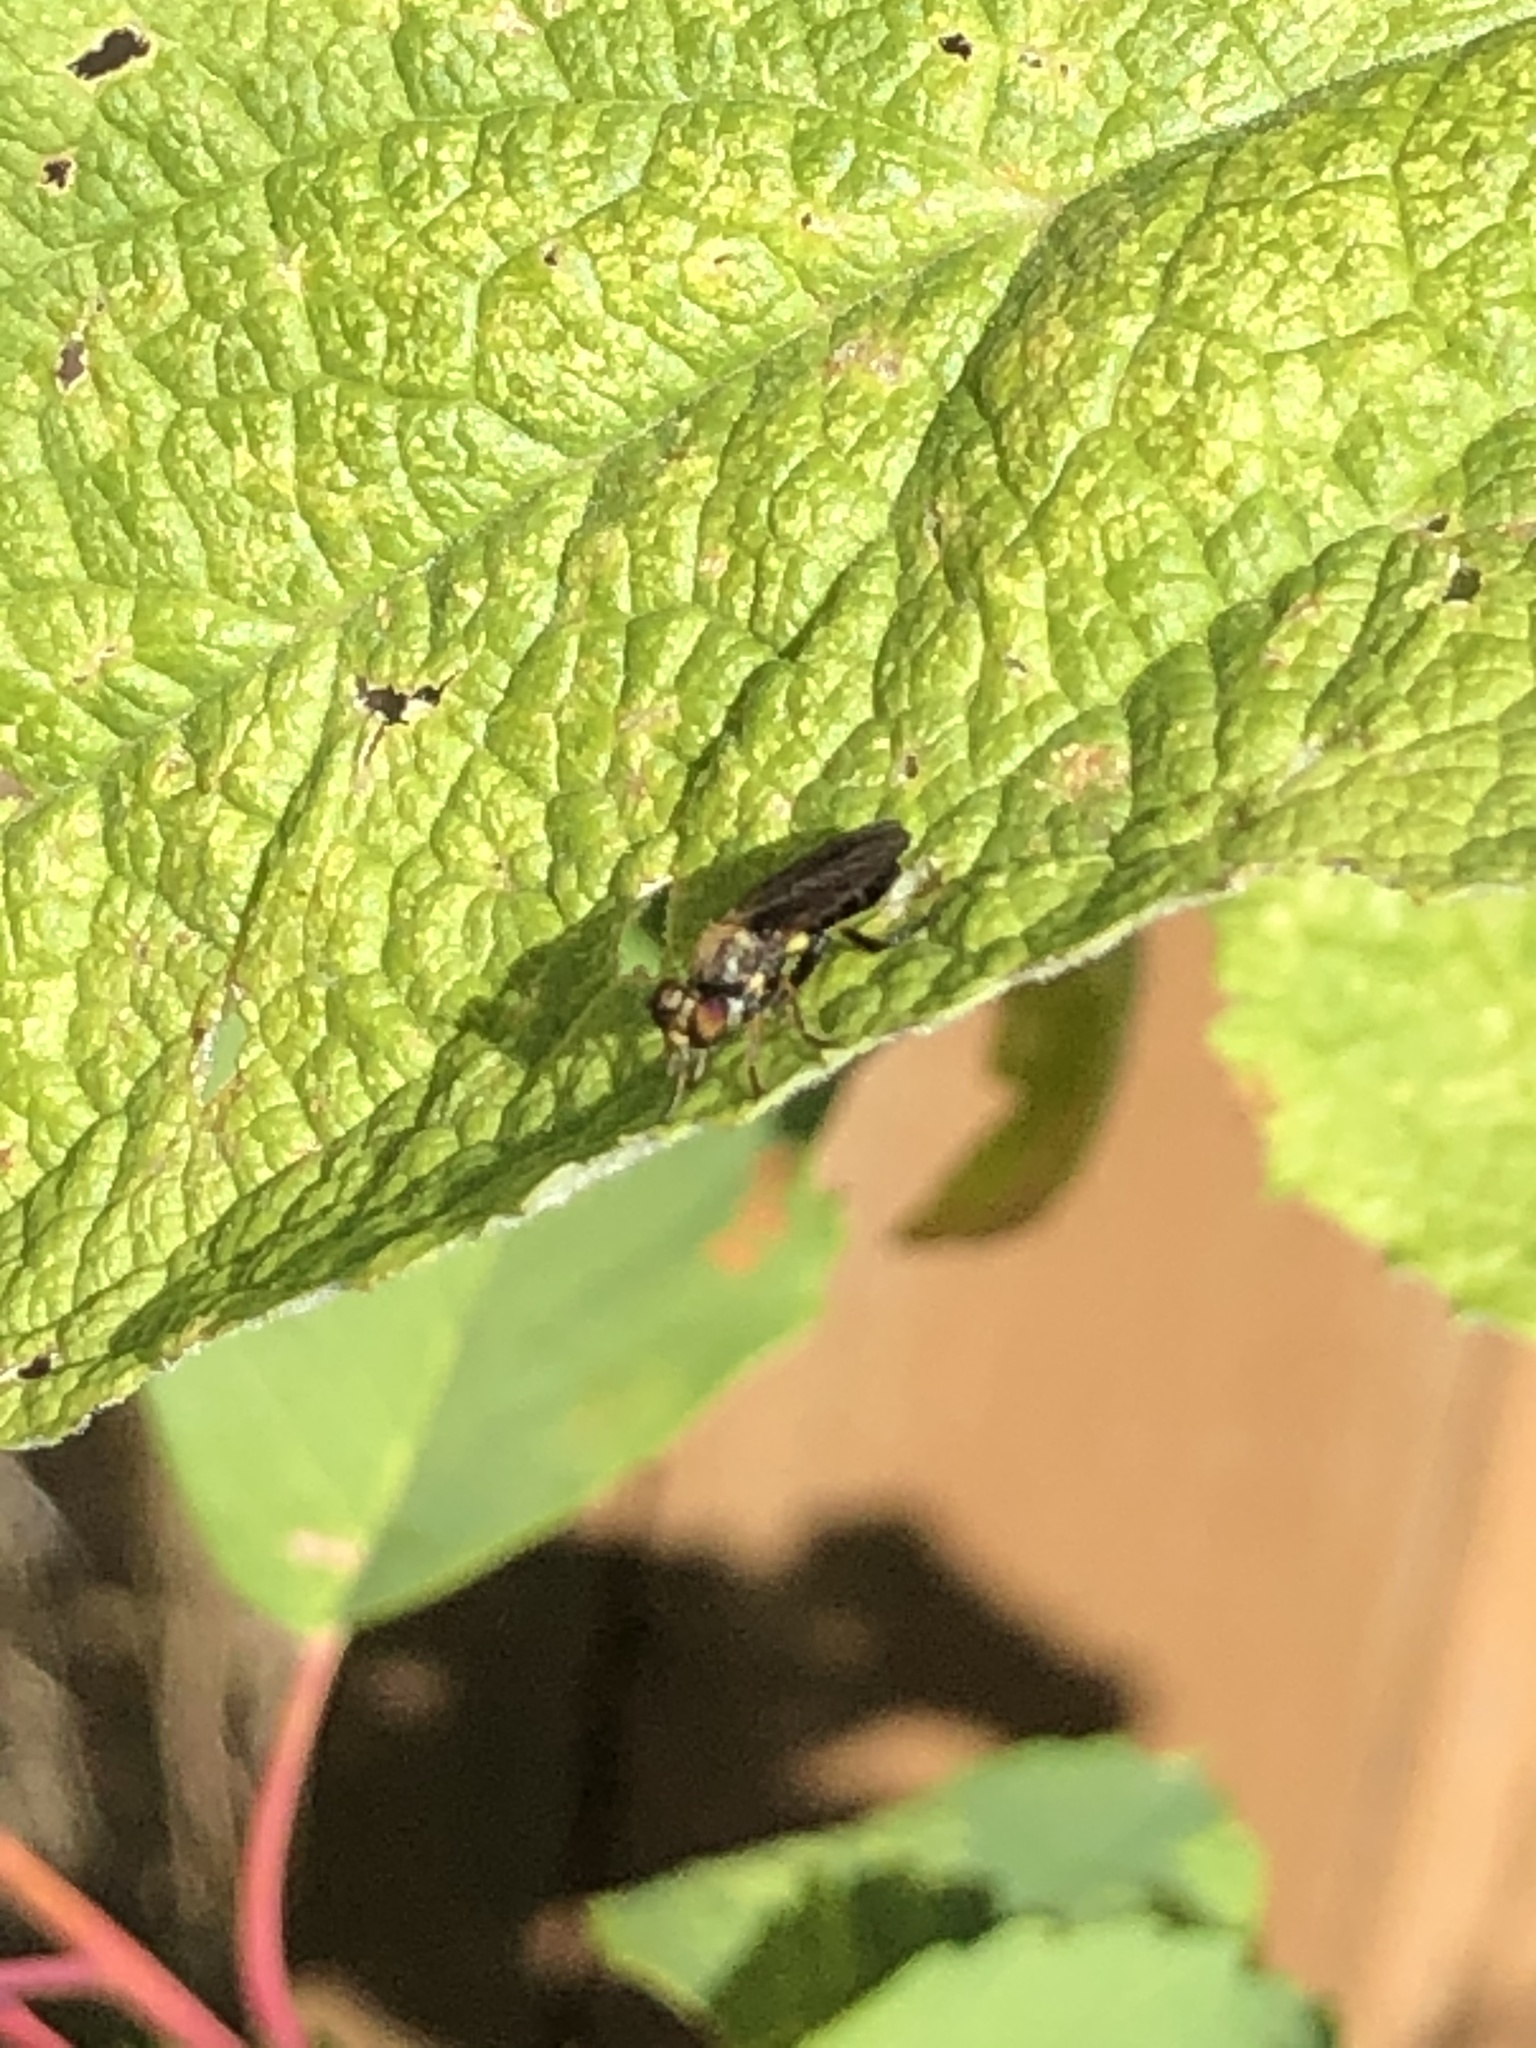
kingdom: Animalia
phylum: Arthropoda
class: Insecta
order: Diptera
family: Asilidae
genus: Eudioctria
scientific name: Eudioctria sackeni
